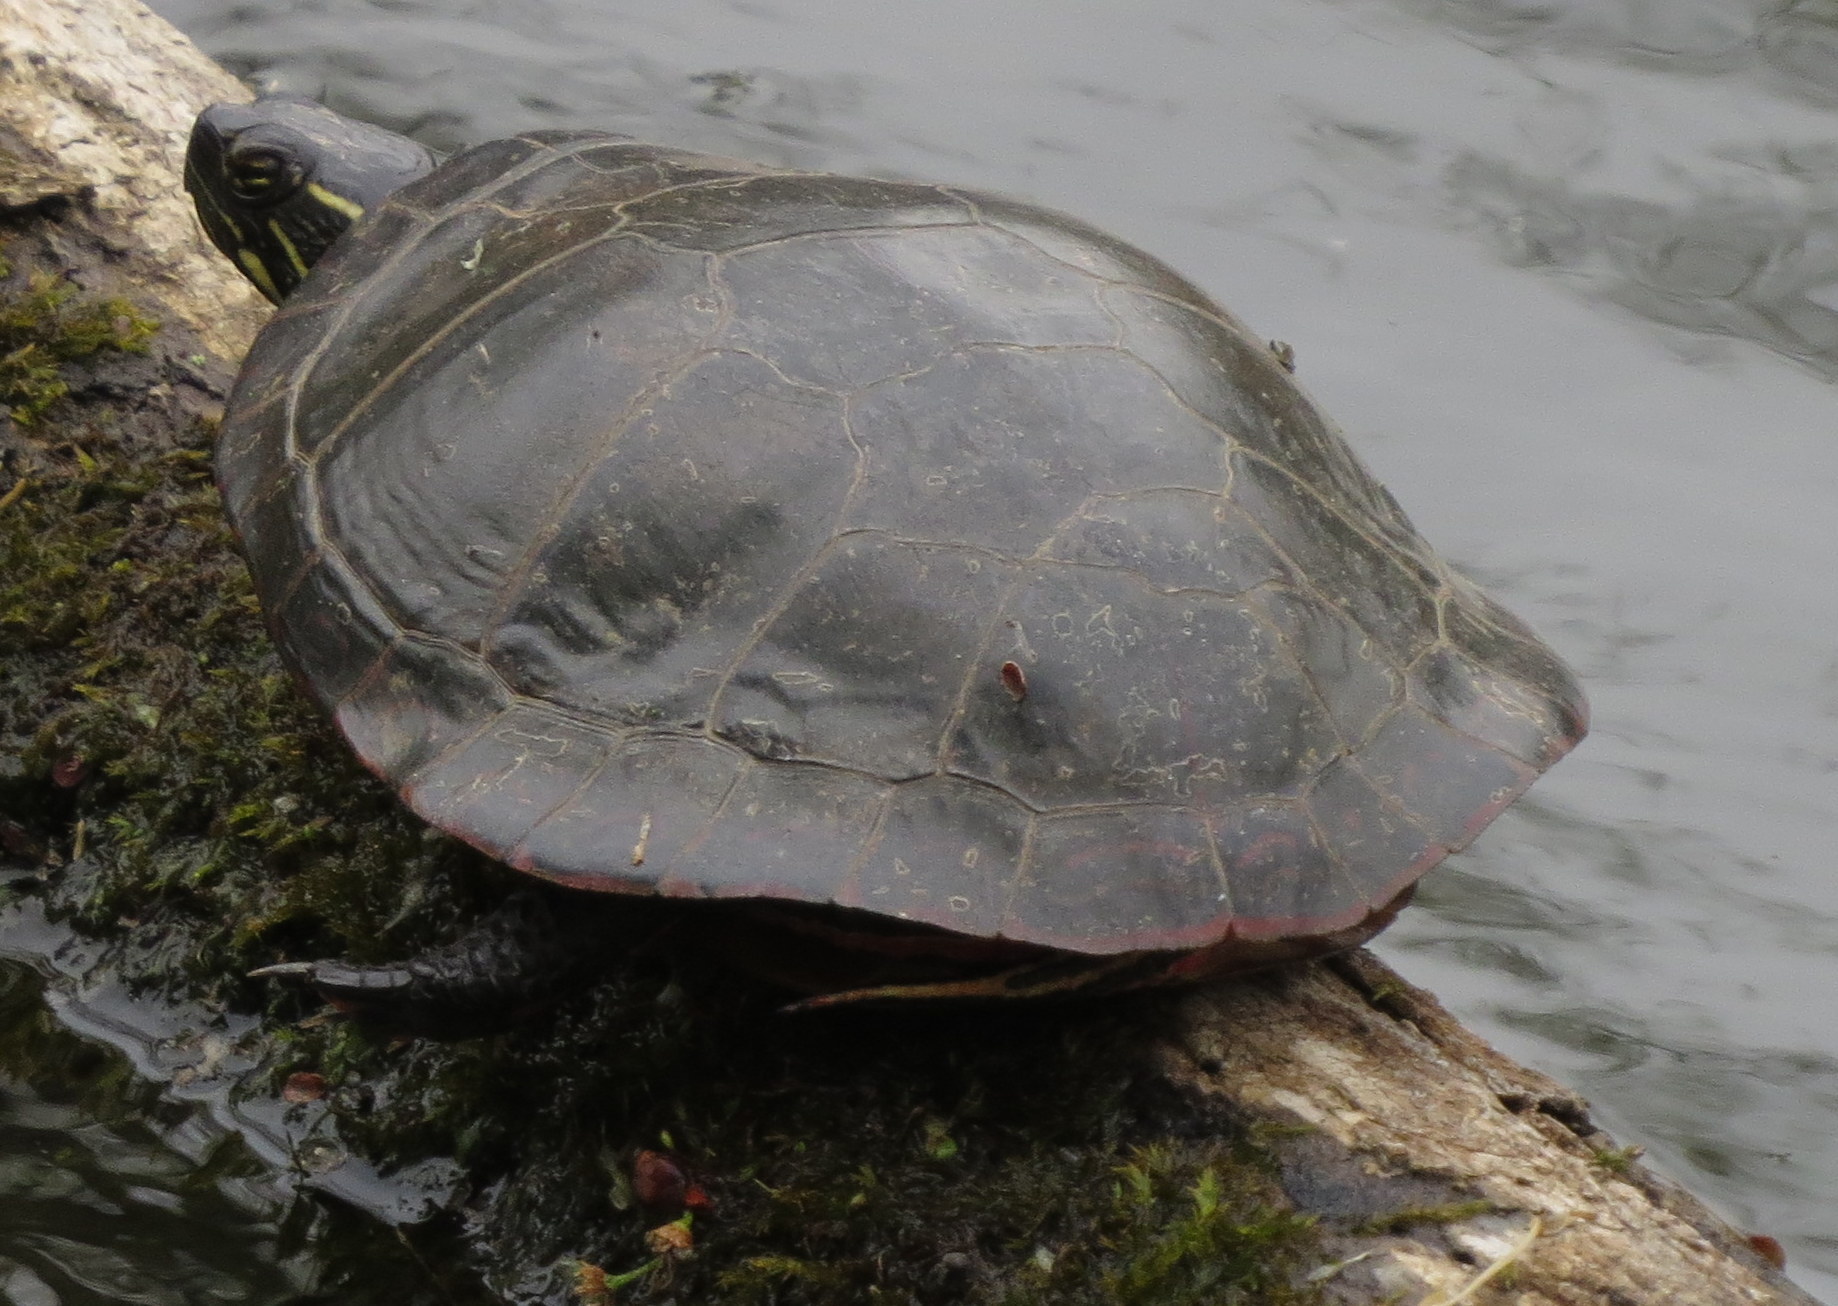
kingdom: Animalia
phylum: Chordata
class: Testudines
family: Emydidae
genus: Chrysemys
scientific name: Chrysemys picta
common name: Painted turtle
